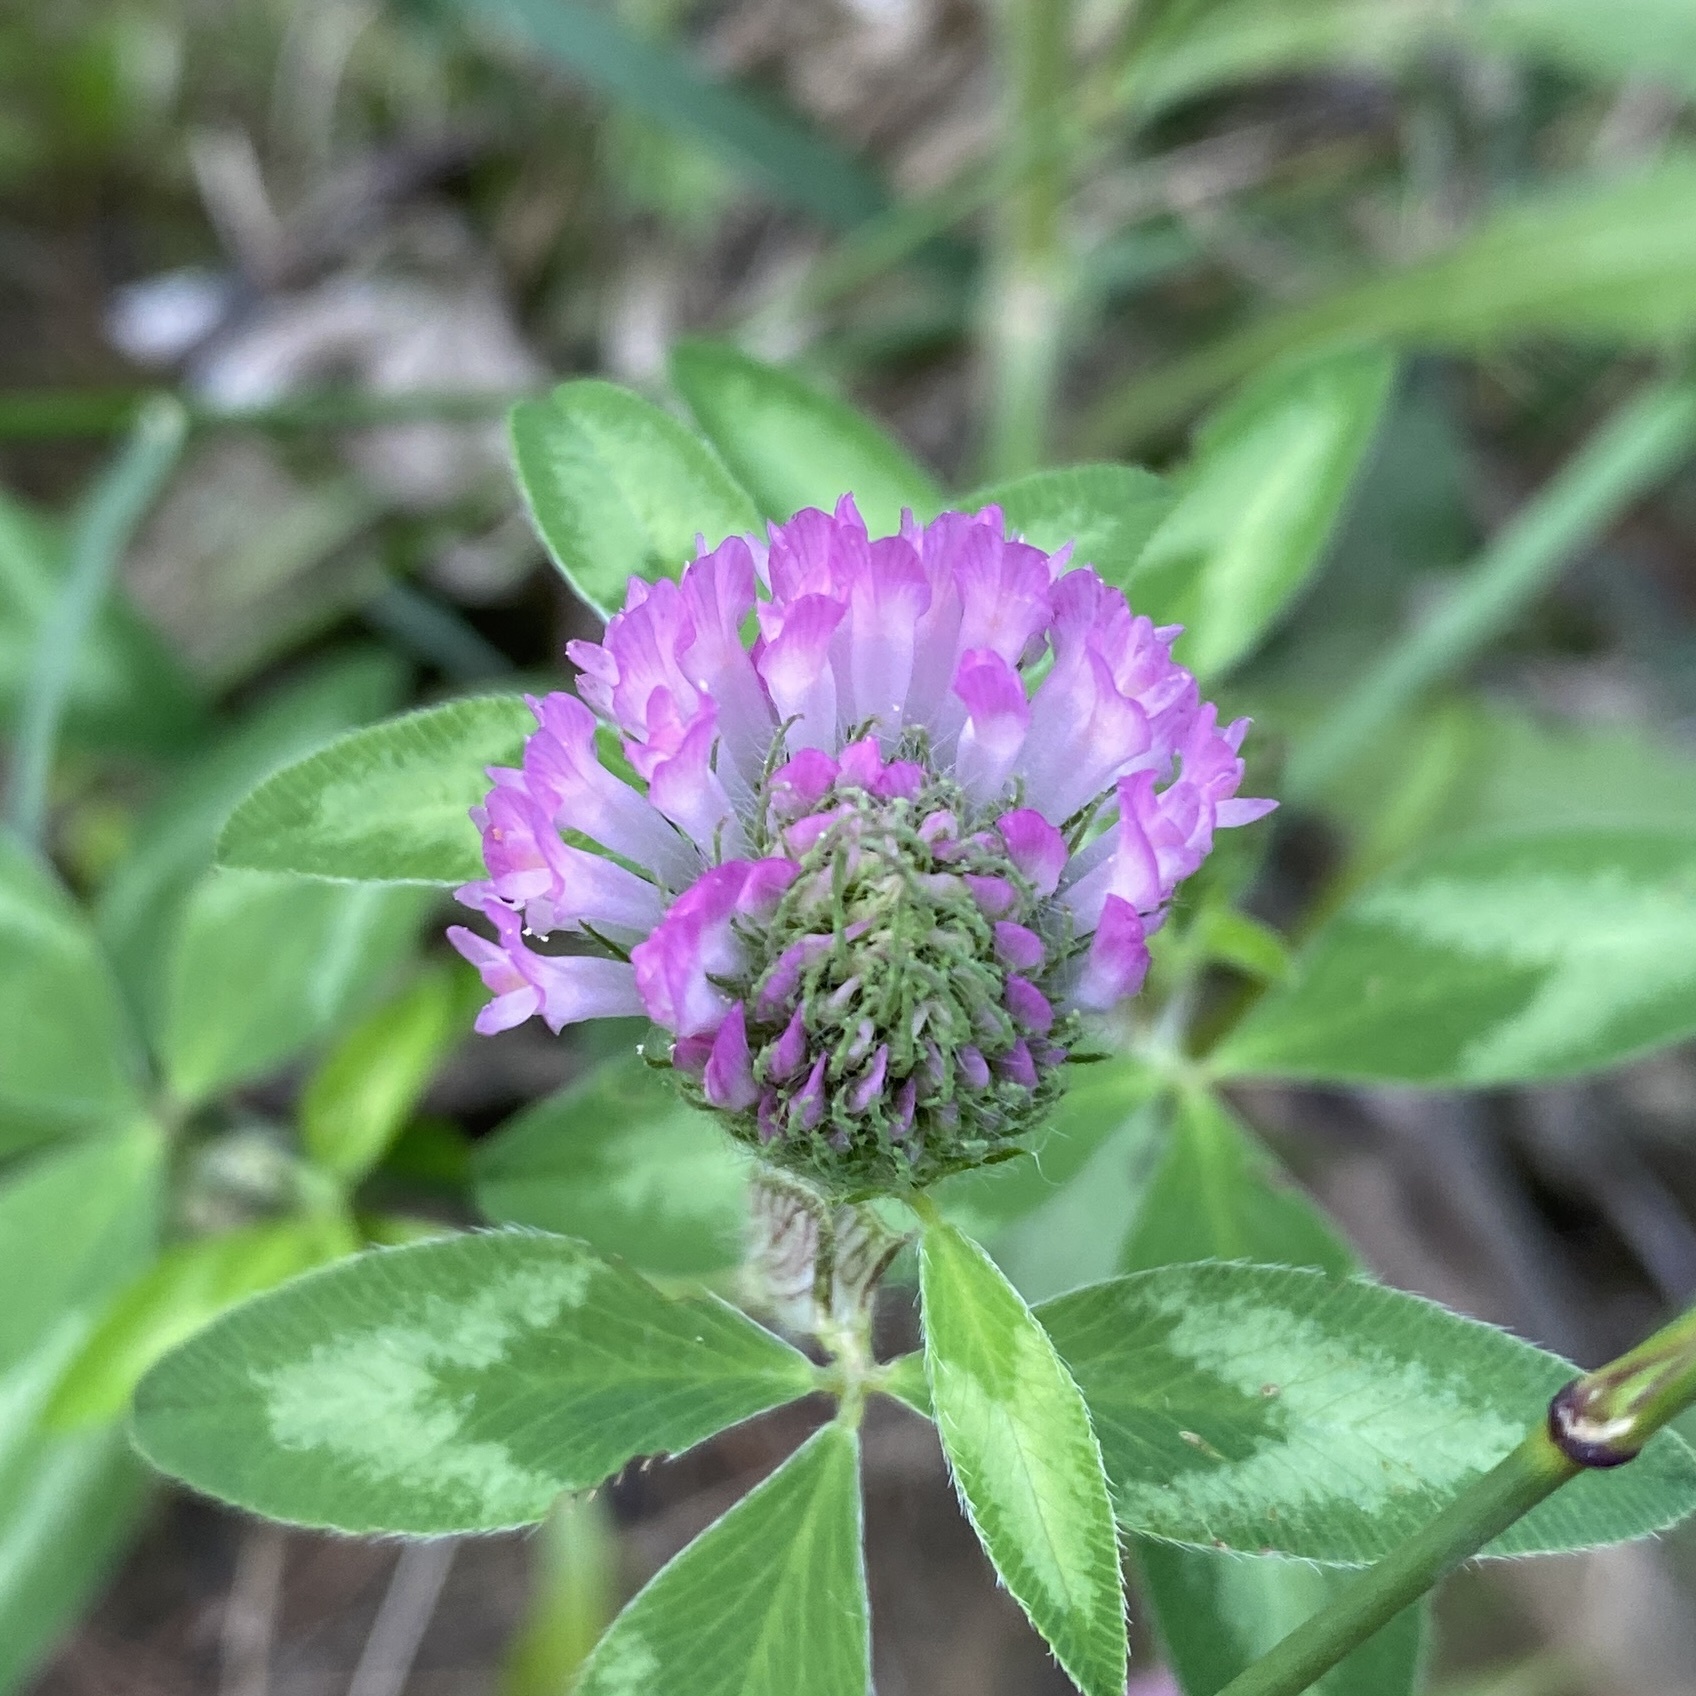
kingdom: Plantae
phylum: Tracheophyta
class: Magnoliopsida
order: Fabales
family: Fabaceae
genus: Trifolium
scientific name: Trifolium pratense
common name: Red clover
